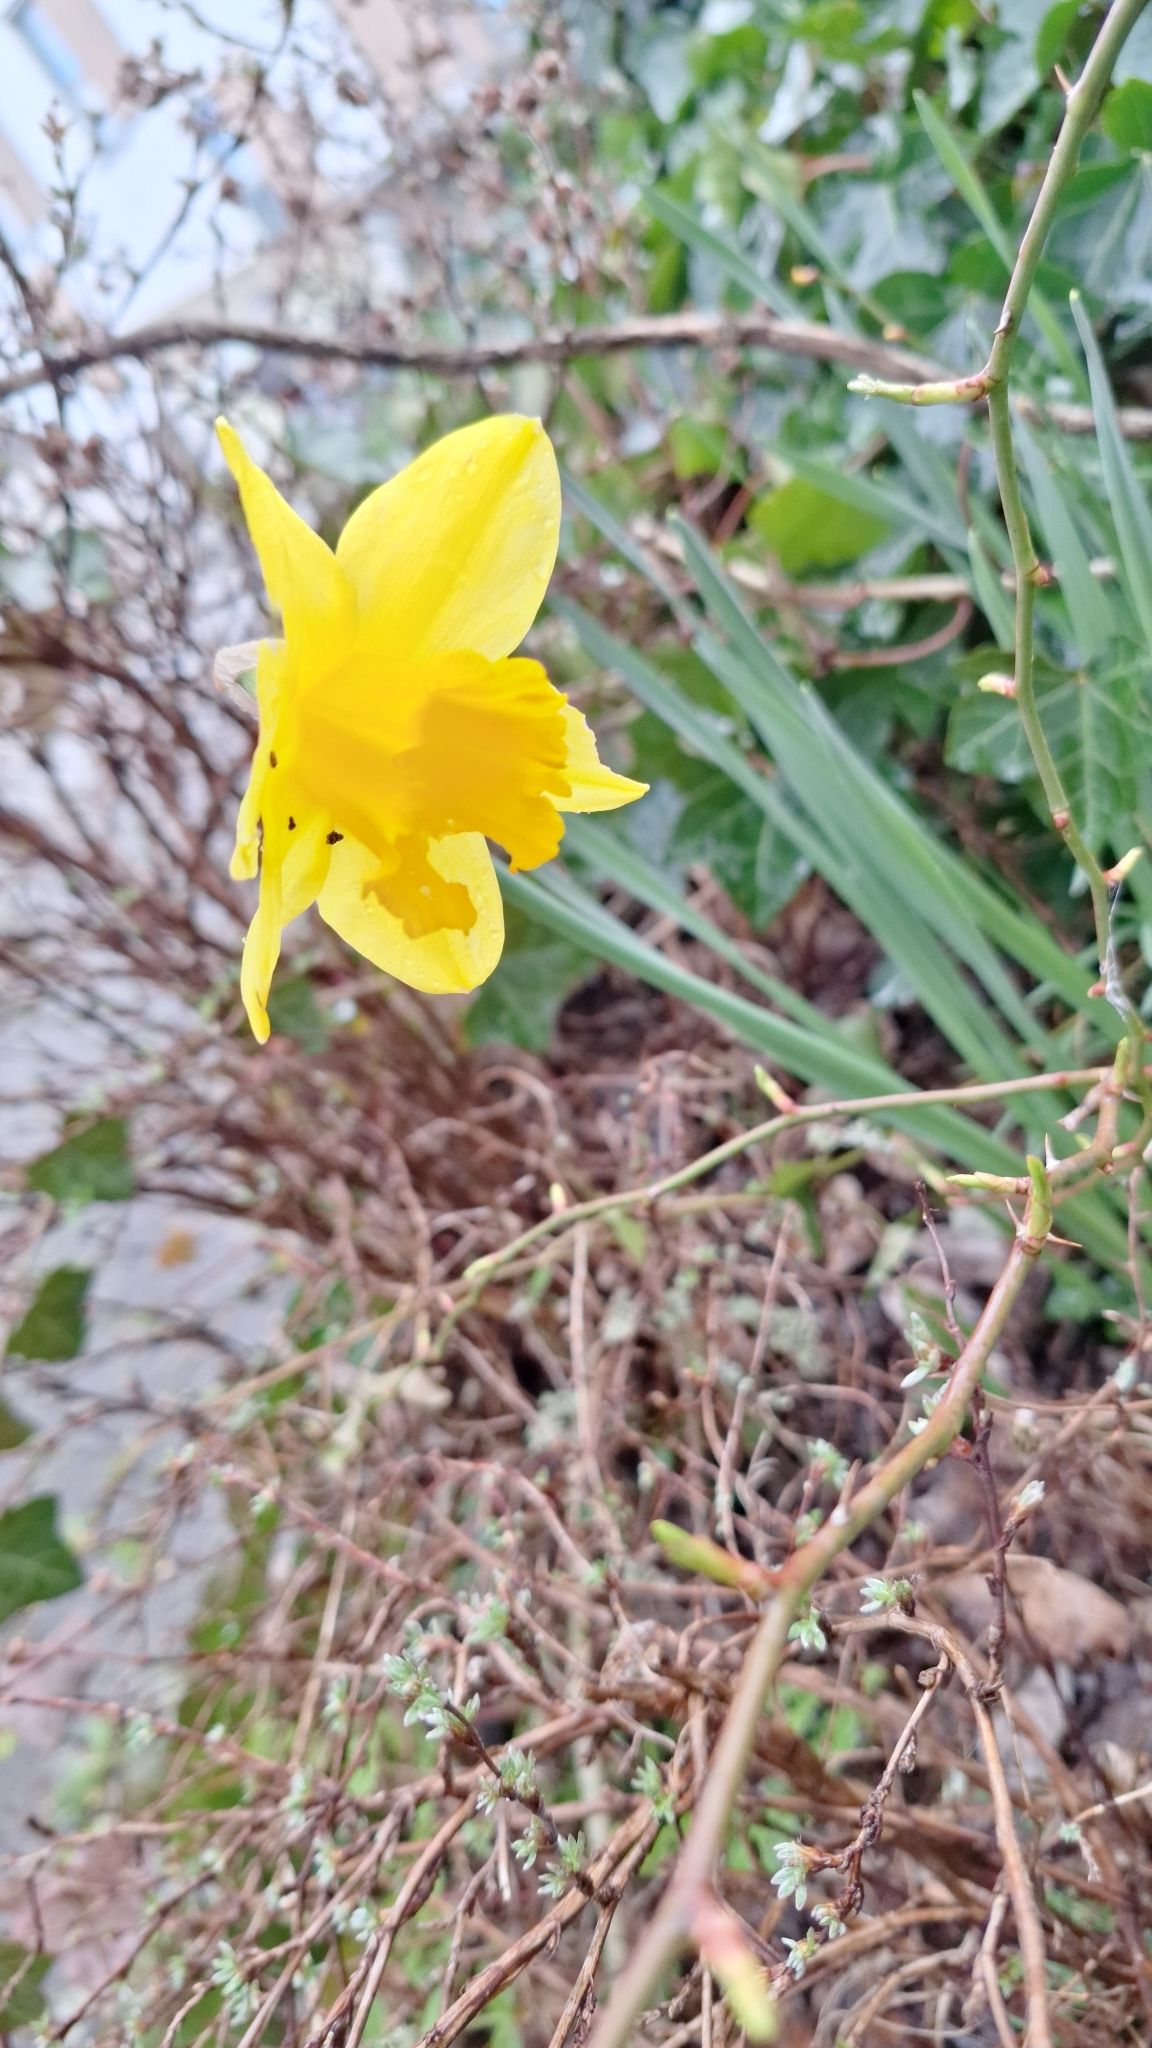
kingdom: Plantae
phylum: Tracheophyta
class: Liliopsida
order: Asparagales
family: Amaryllidaceae
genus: Narcissus
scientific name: Narcissus pseudonarcissus
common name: Daffodil
